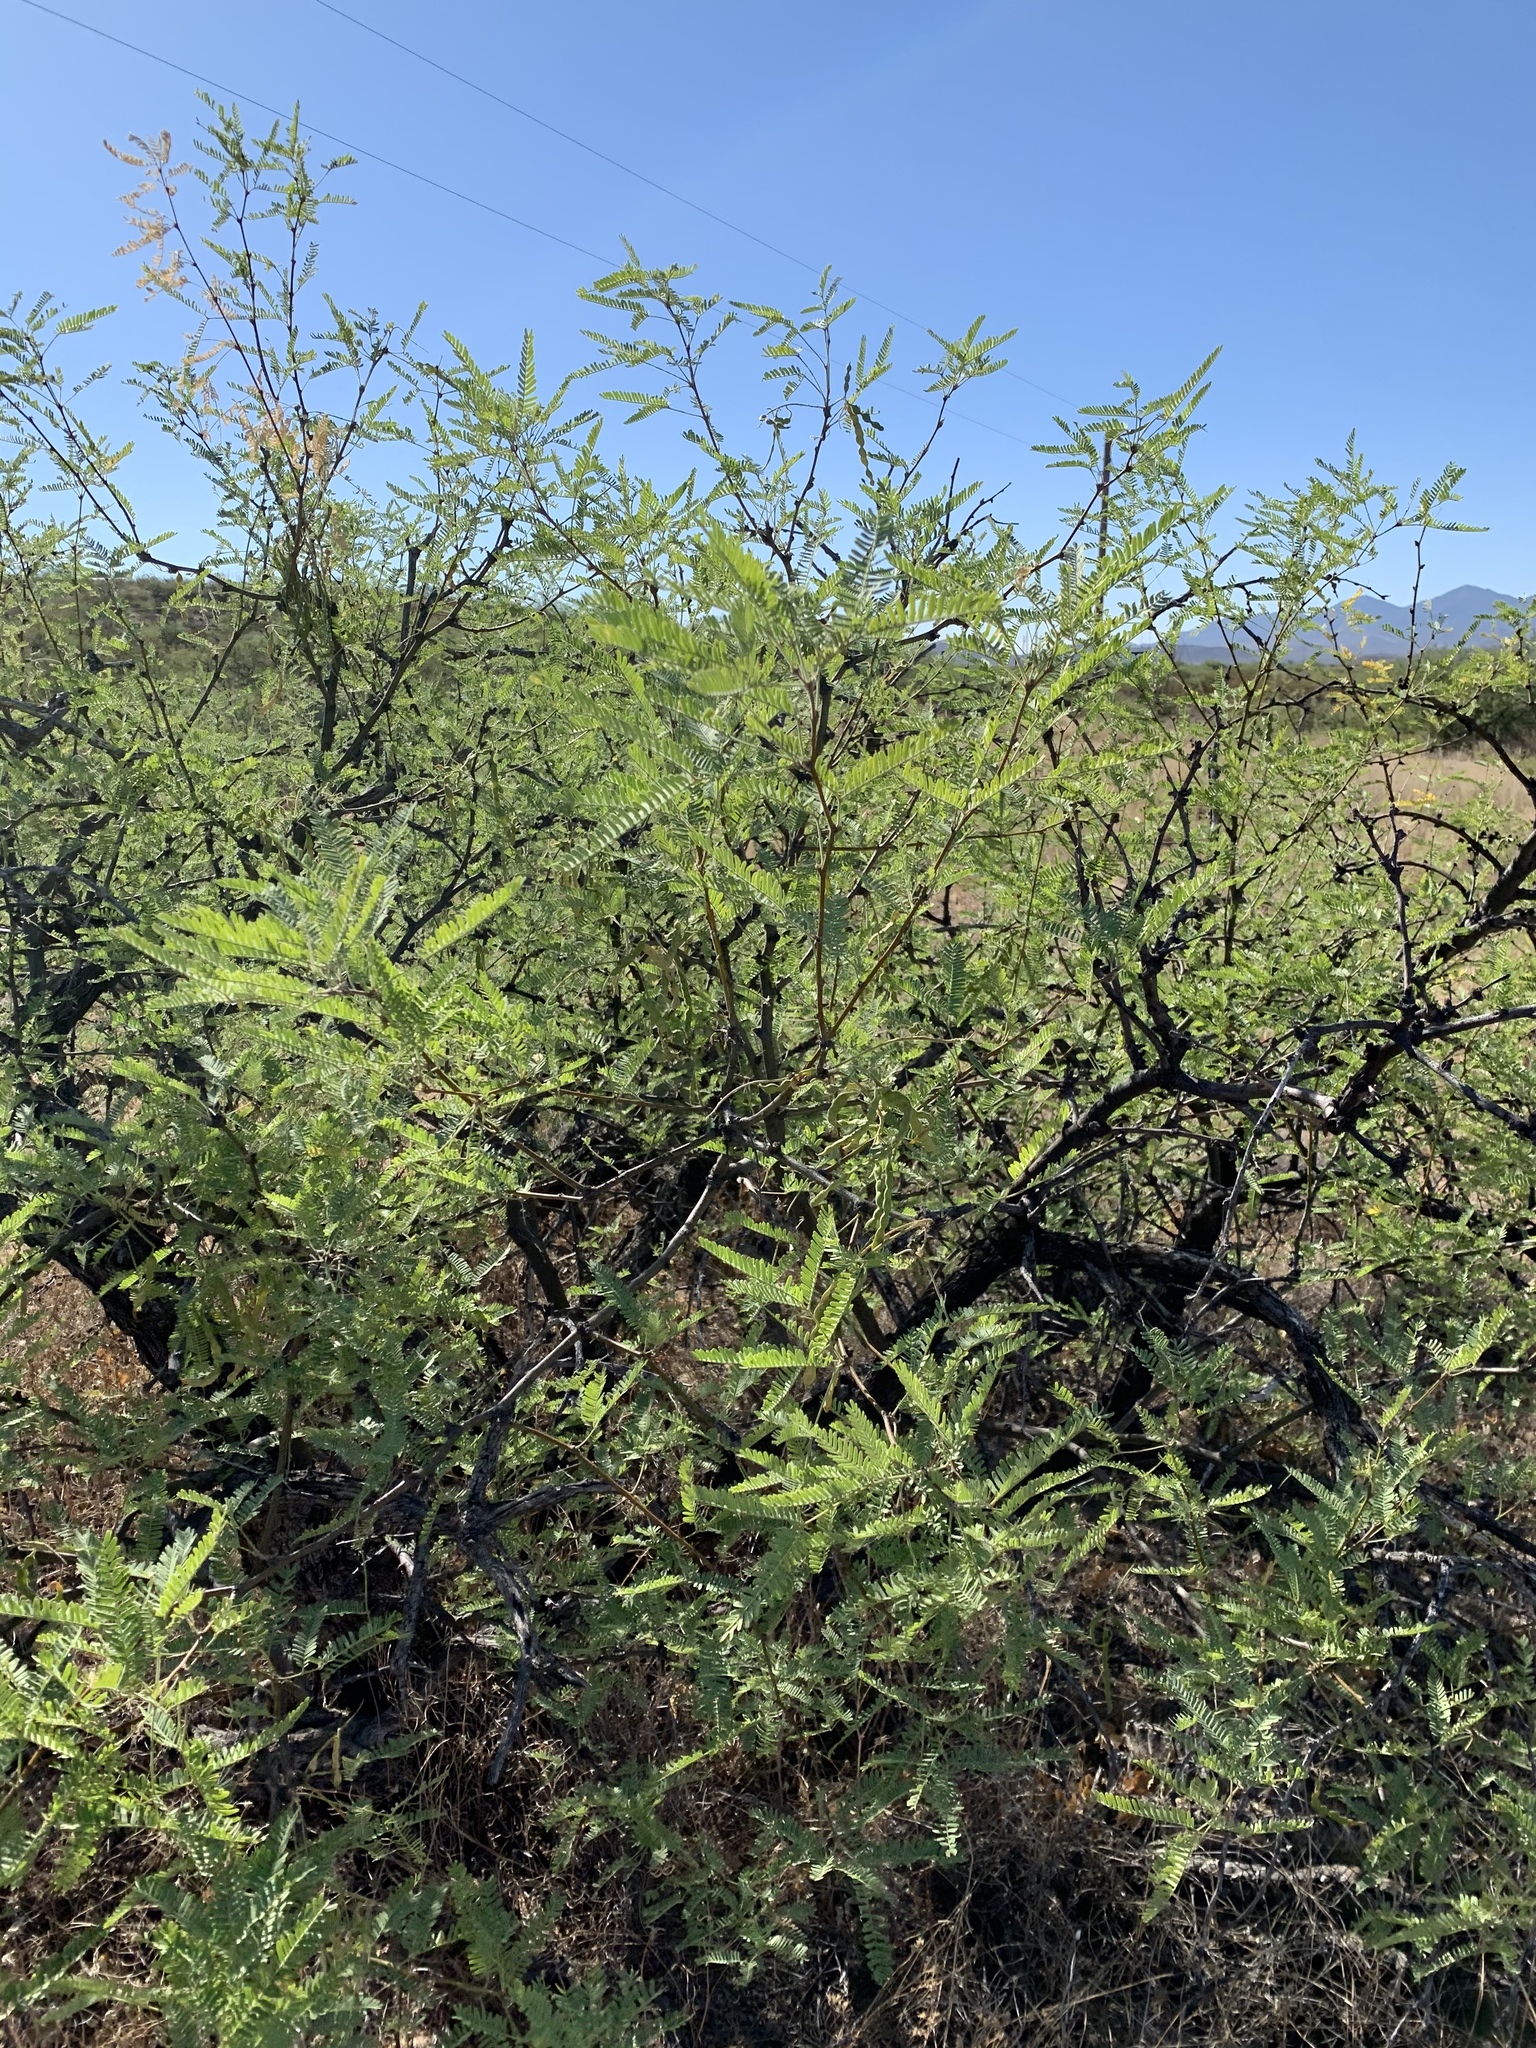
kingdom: Plantae
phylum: Tracheophyta
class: Magnoliopsida
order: Fabales
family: Fabaceae
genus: Prosopis
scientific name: Prosopis velutina
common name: Velvet mesquite
